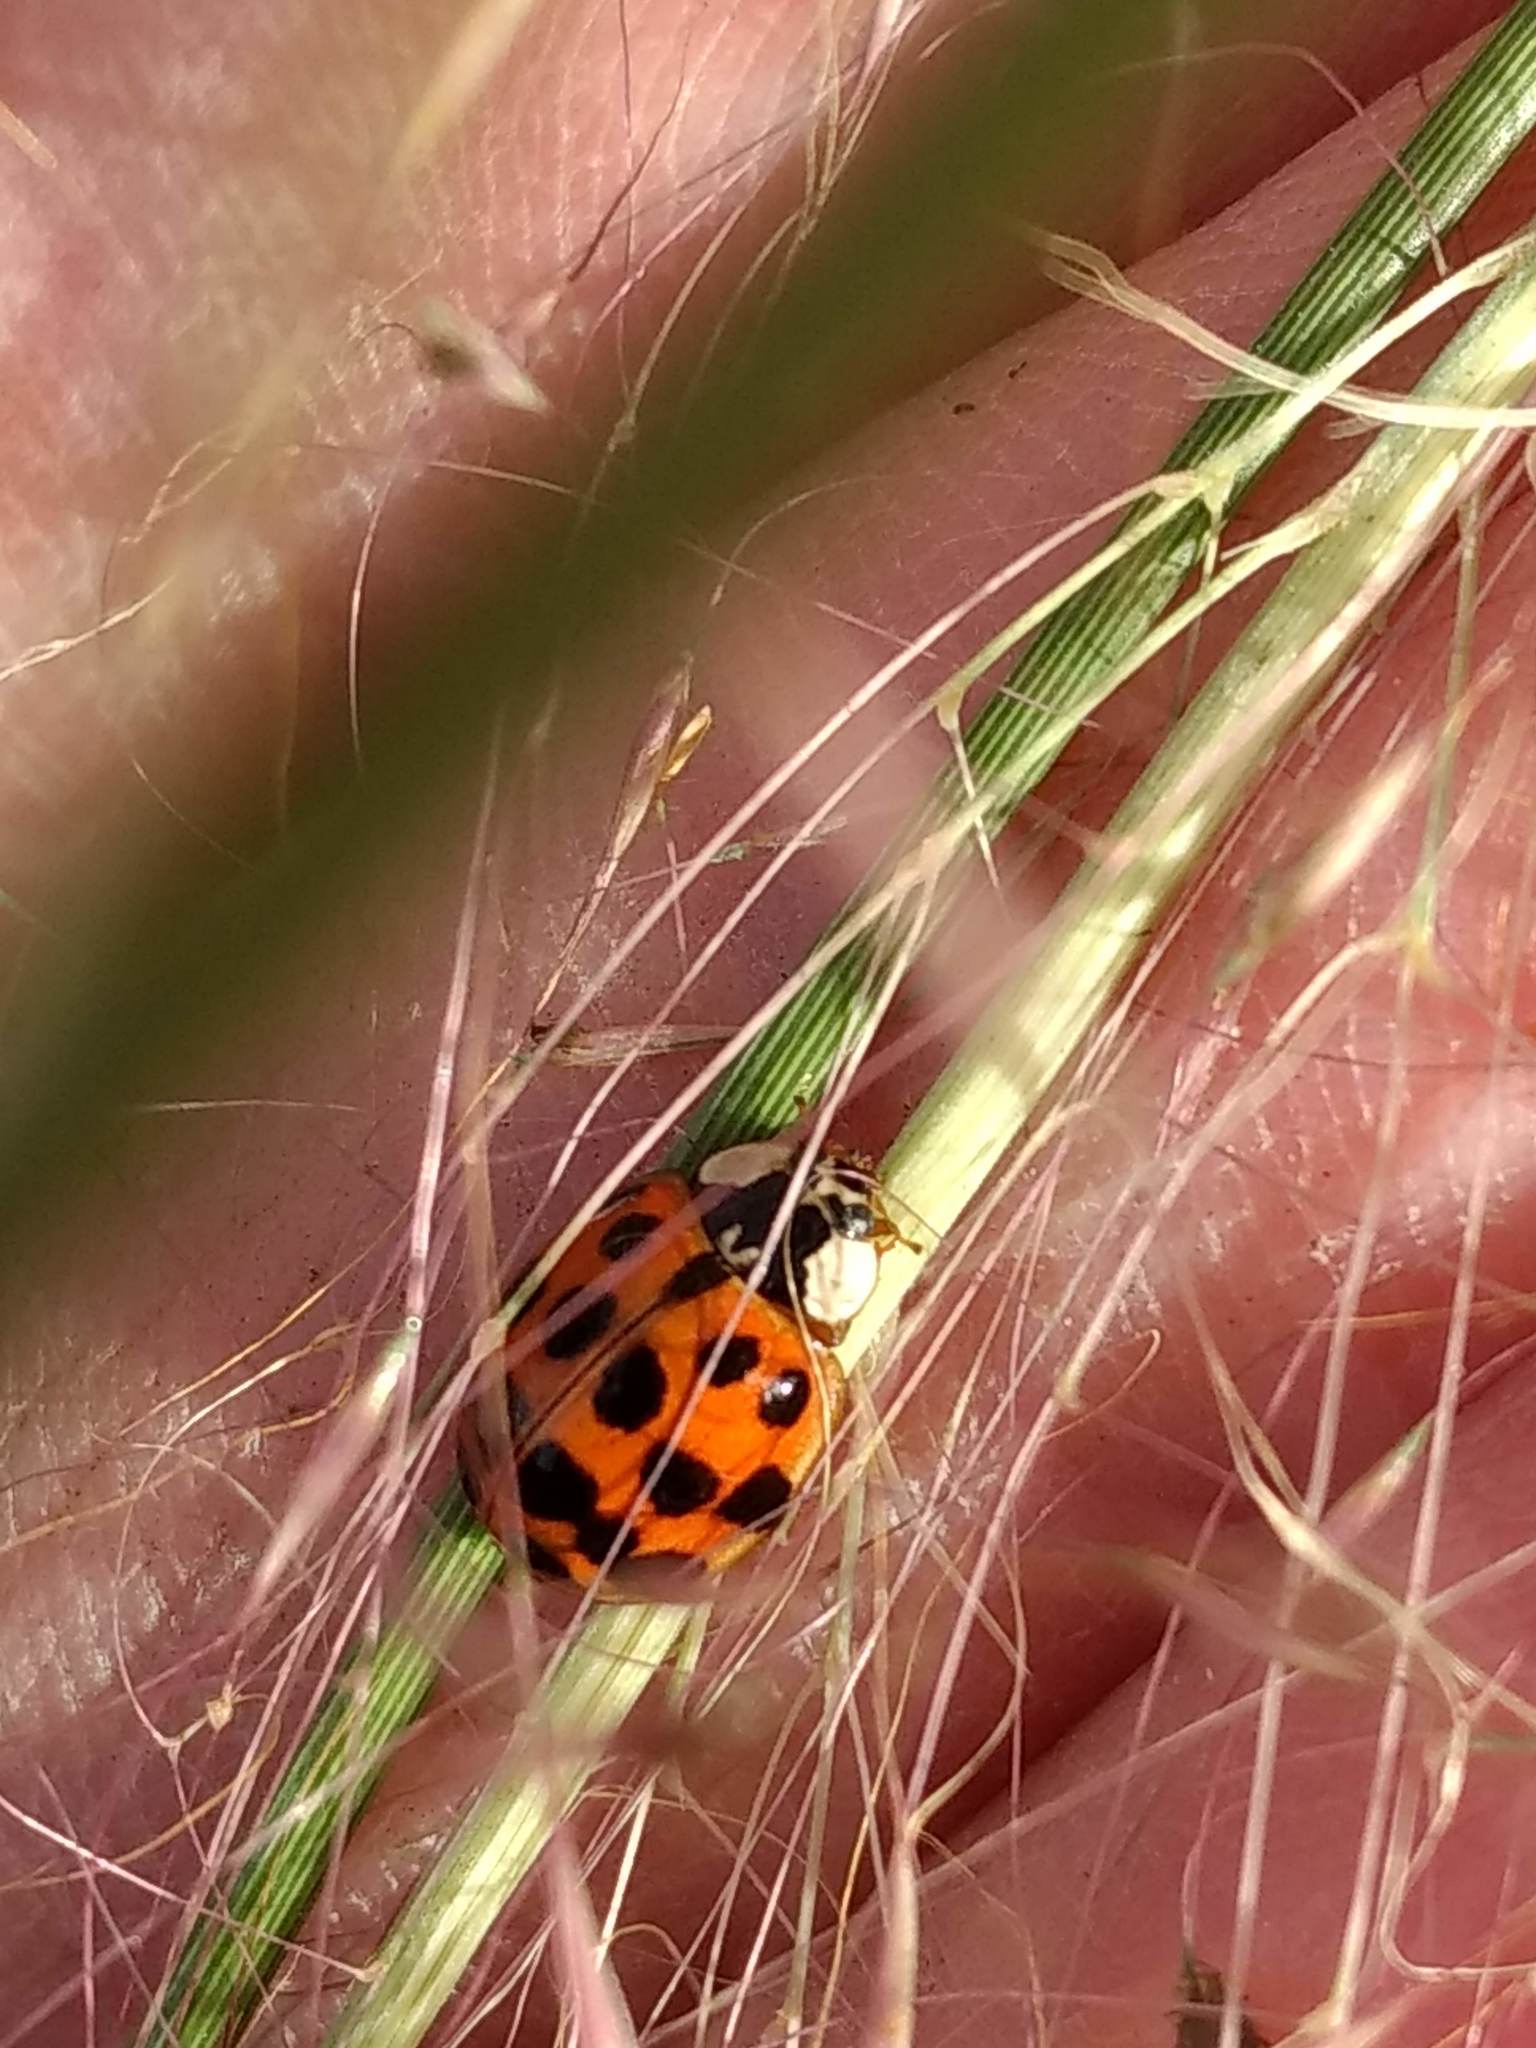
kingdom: Animalia
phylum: Arthropoda
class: Insecta
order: Coleoptera
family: Coccinellidae
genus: Harmonia
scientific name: Harmonia axyridis
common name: Harlequin ladybird
